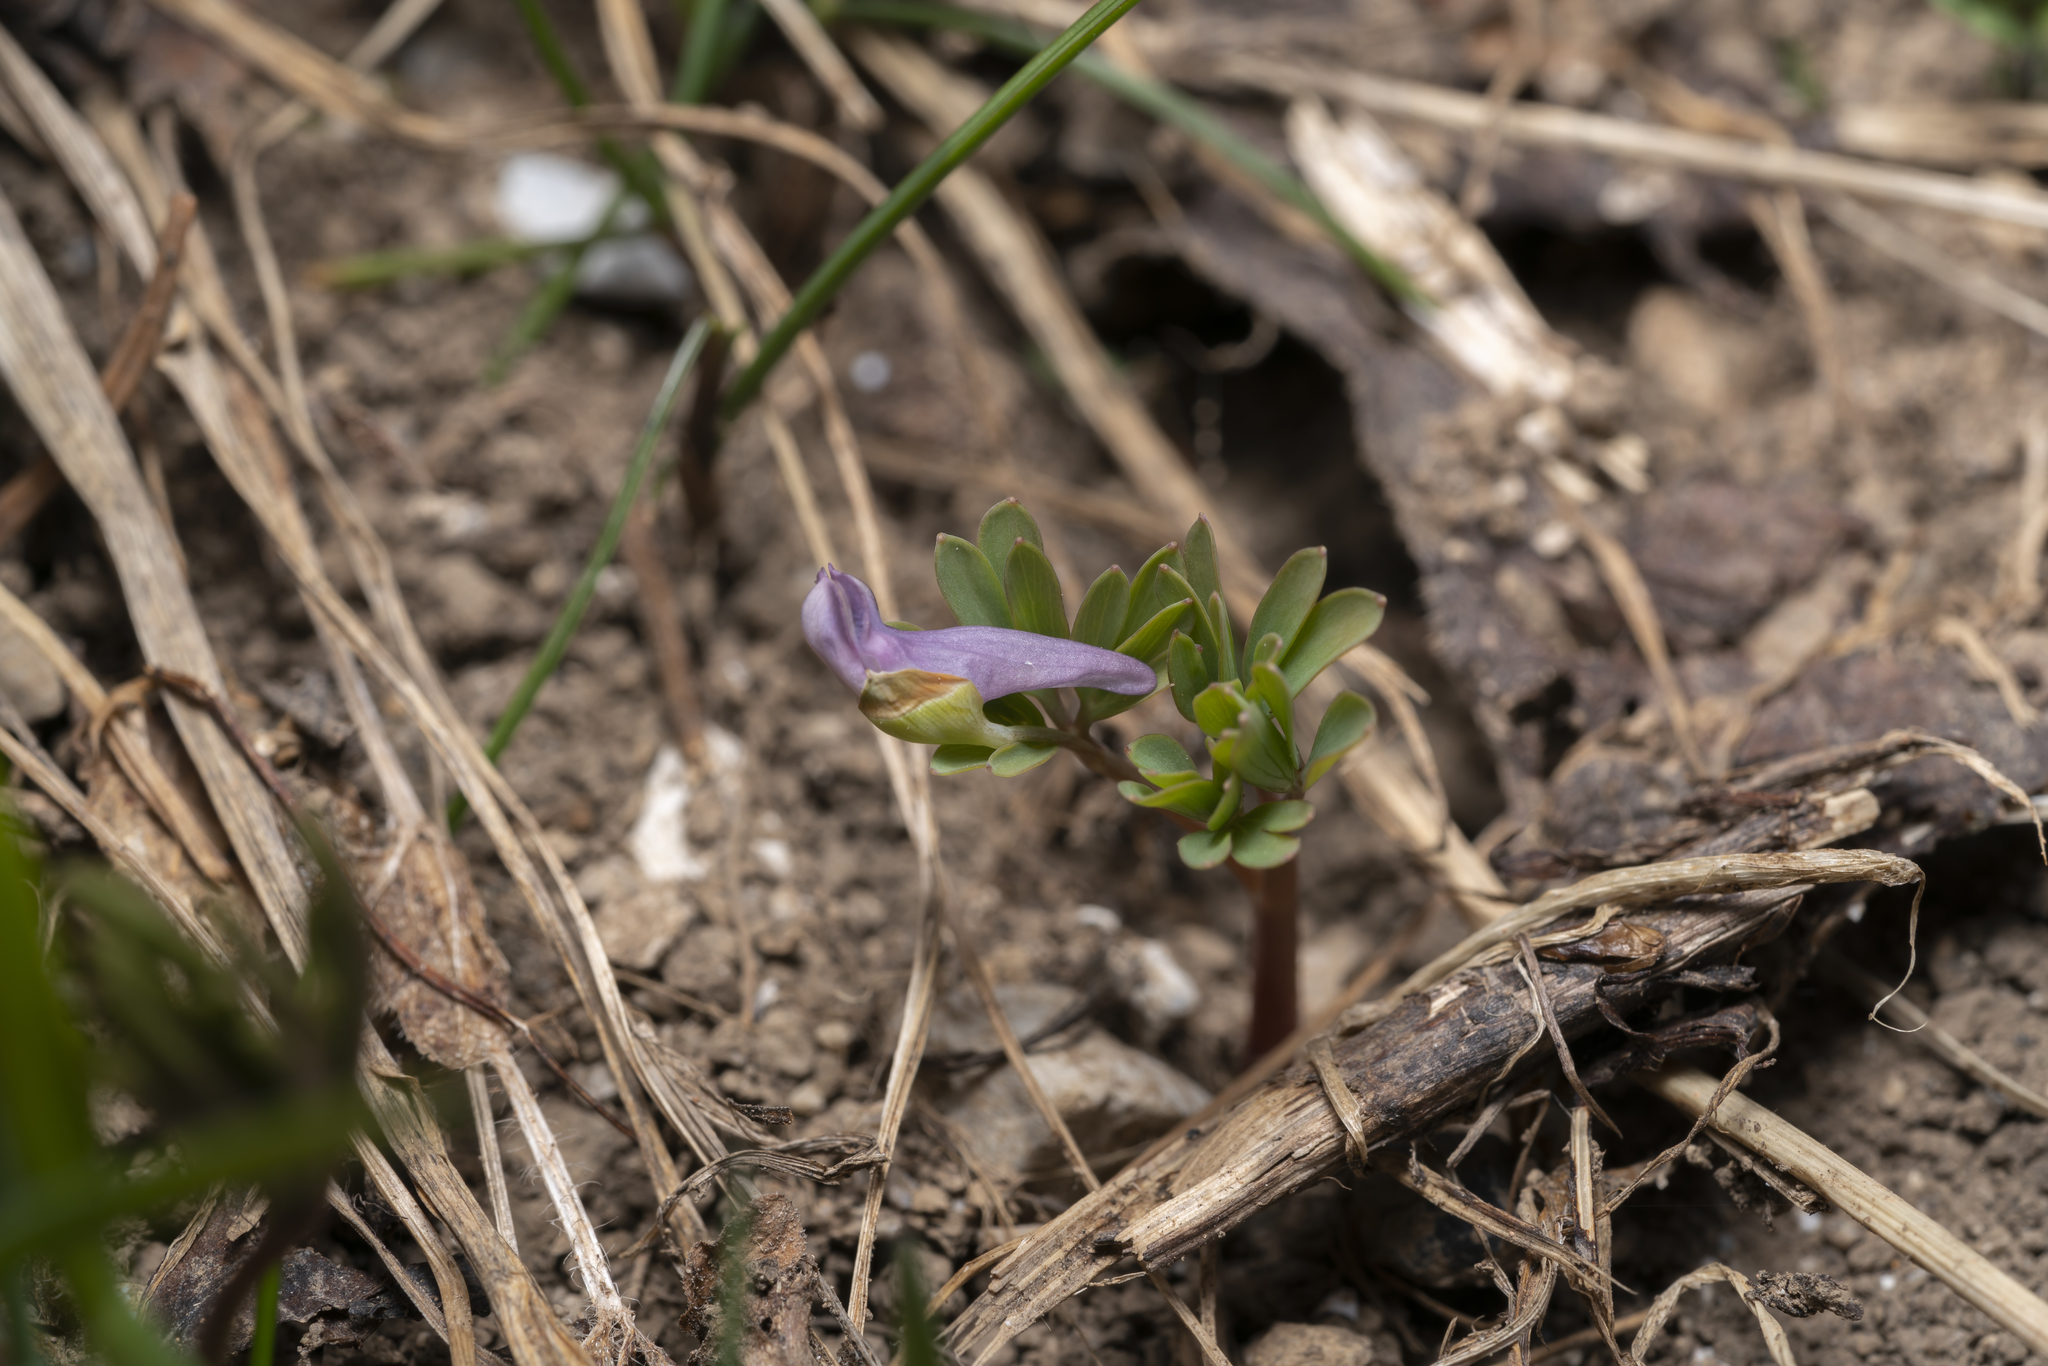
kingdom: Plantae
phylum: Tracheophyta
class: Magnoliopsida
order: Ranunculales
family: Papaveraceae
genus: Corydalis
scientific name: Corydalis intermedia
